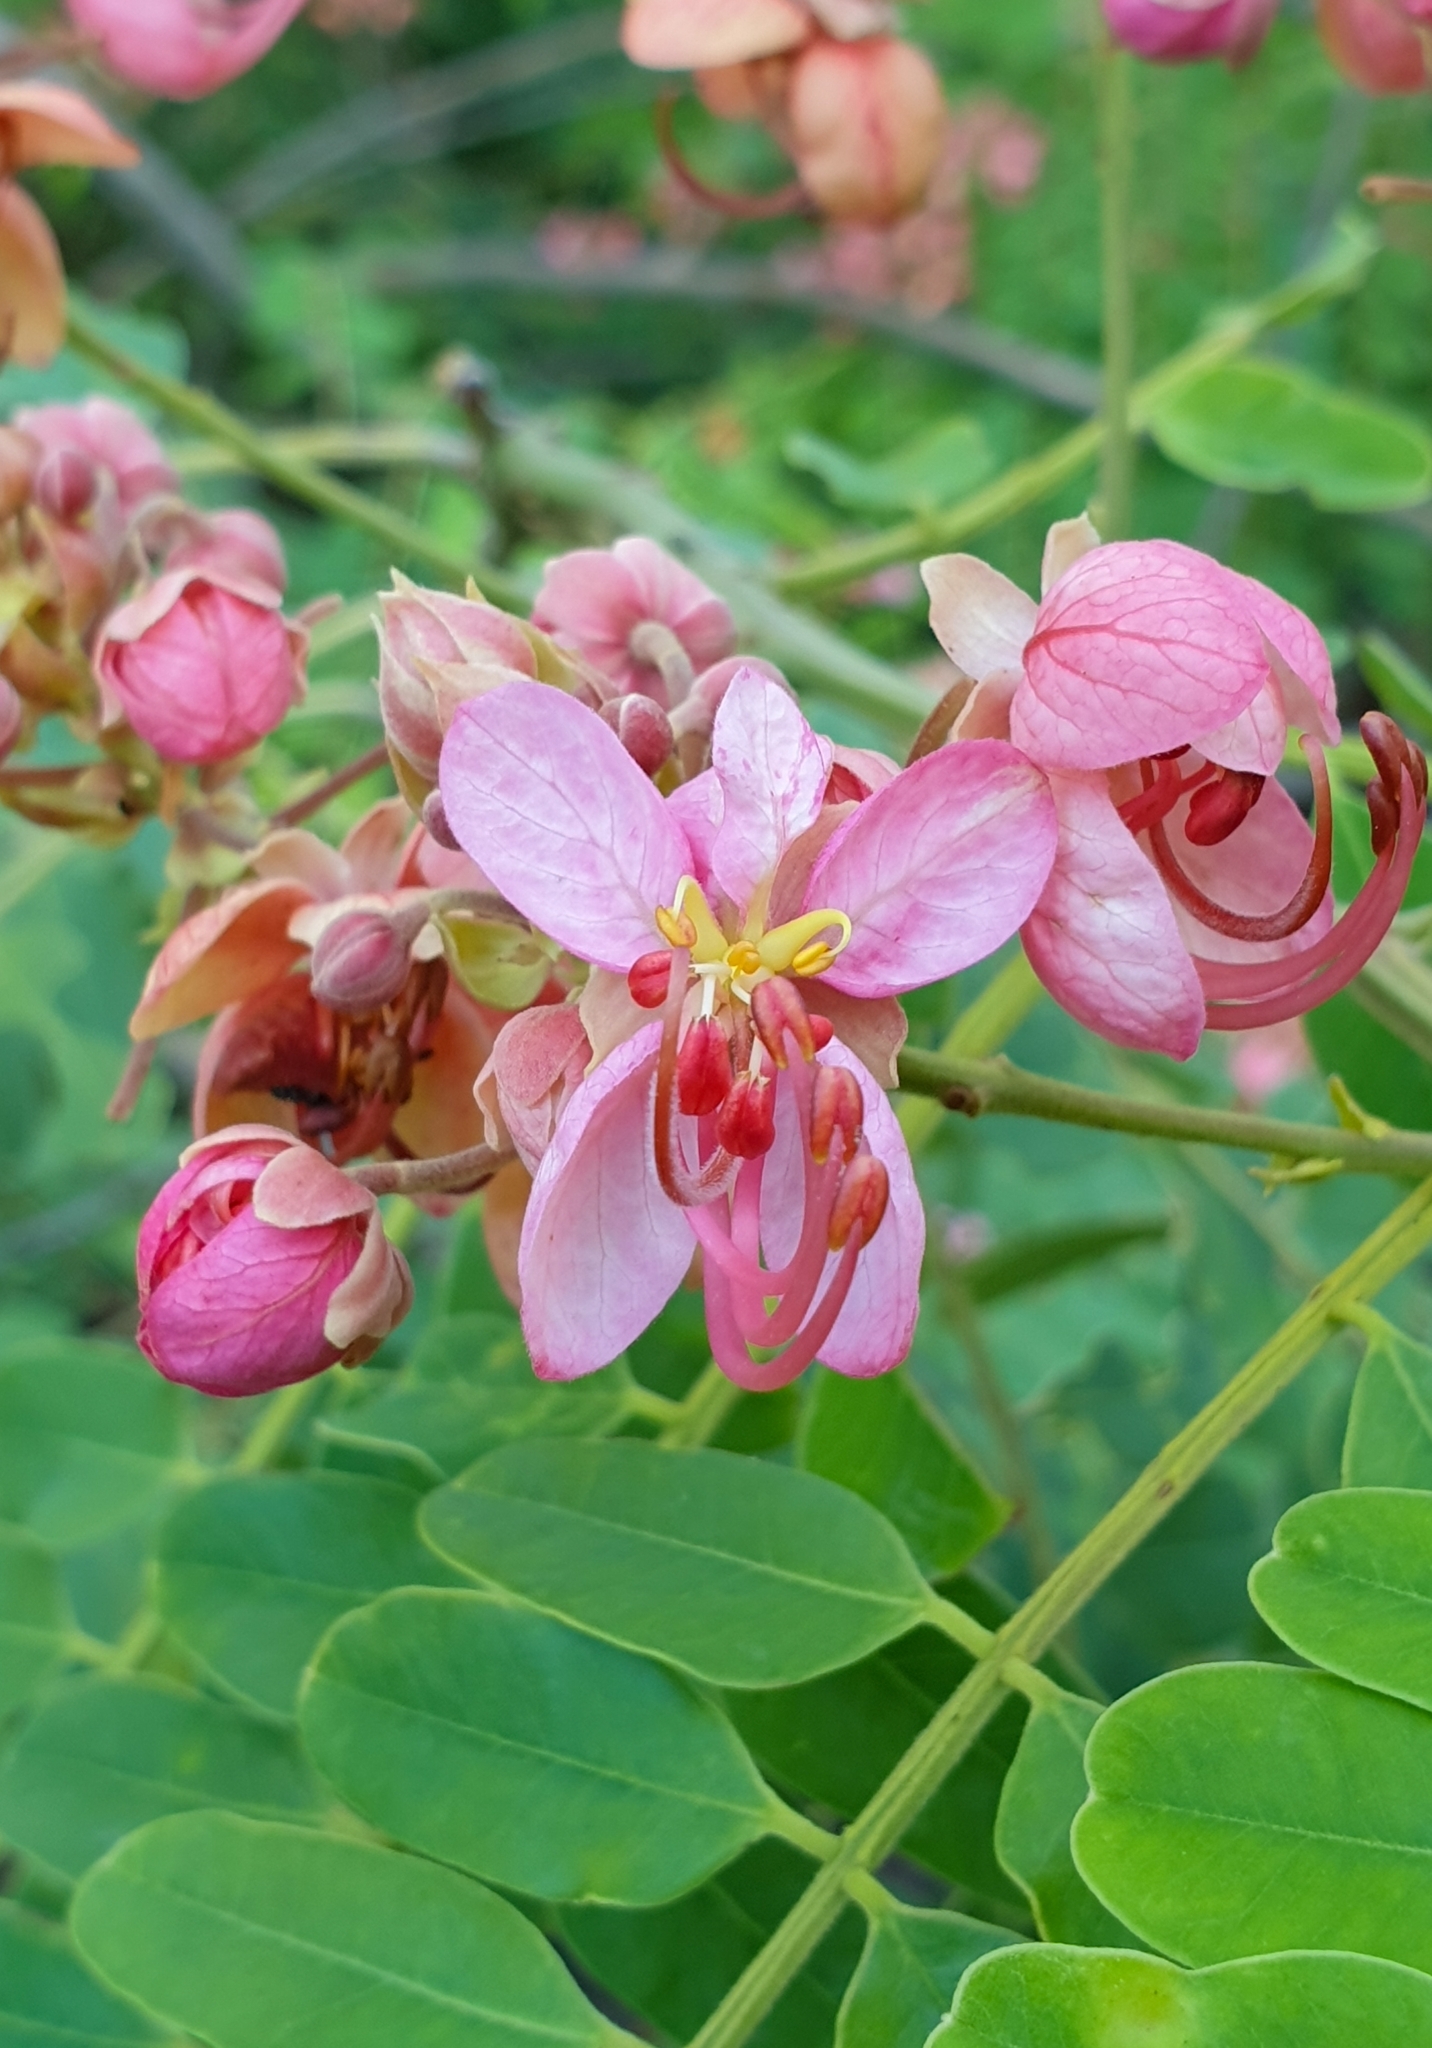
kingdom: Plantae
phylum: Tracheophyta
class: Magnoliopsida
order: Fabales
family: Fabaceae
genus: Cassia
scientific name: Cassia roxburghii
